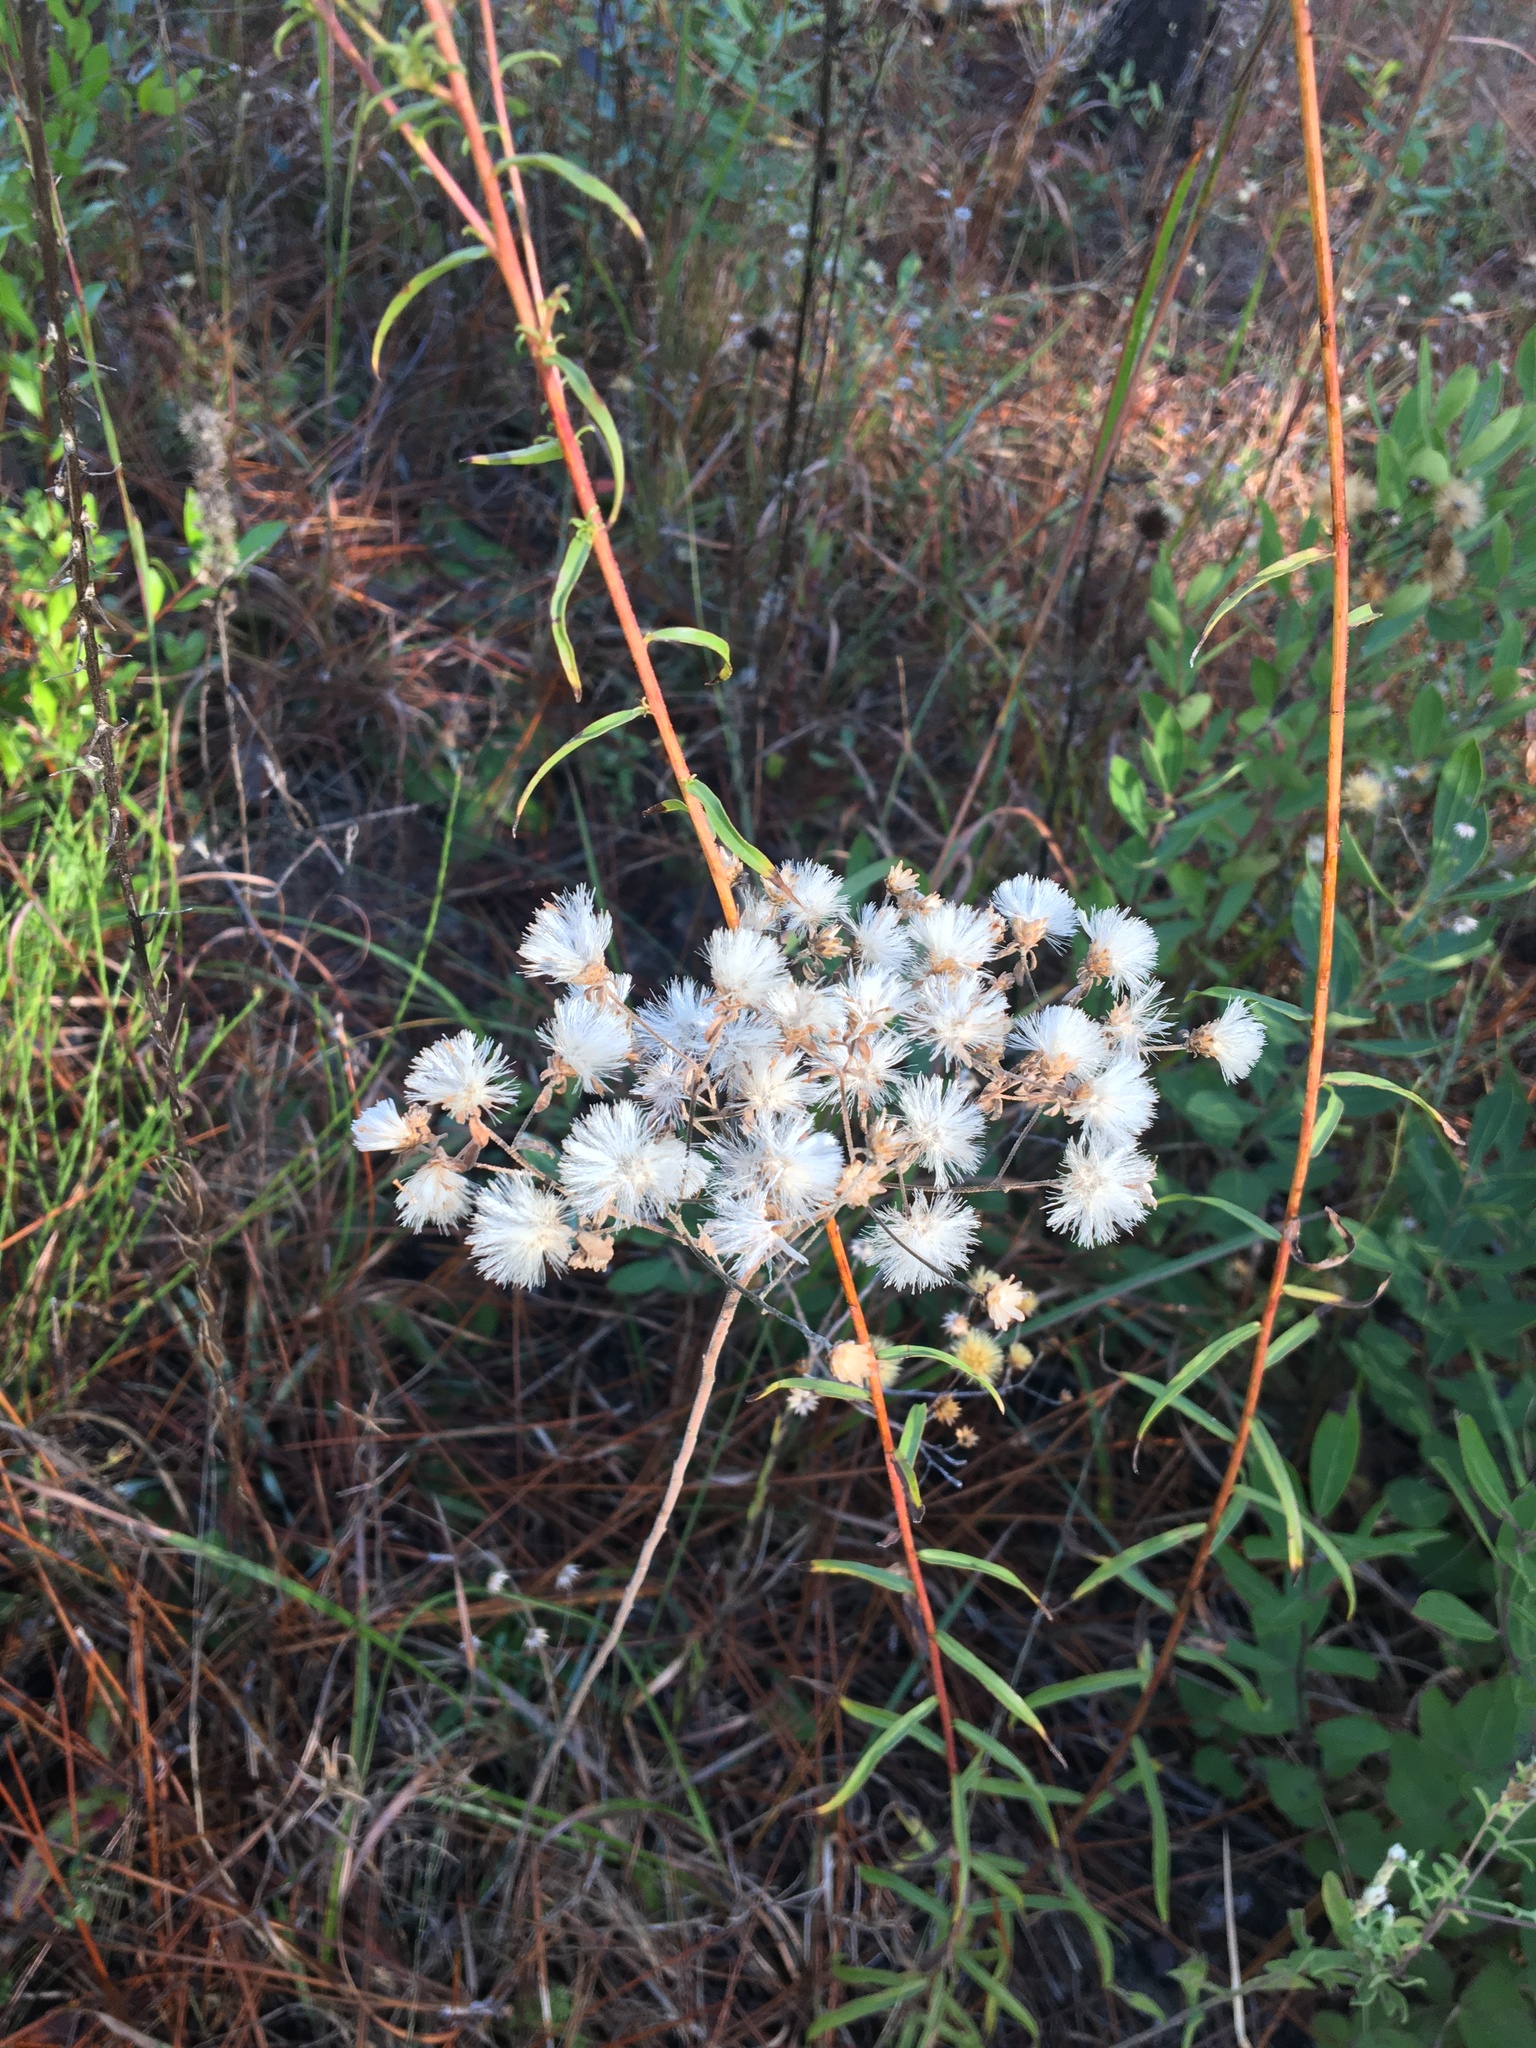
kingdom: Plantae
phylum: Tracheophyta
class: Magnoliopsida
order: Asterales
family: Asteraceae
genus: Solidago
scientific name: Solidago odora
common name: Anise-scented goldenrod
